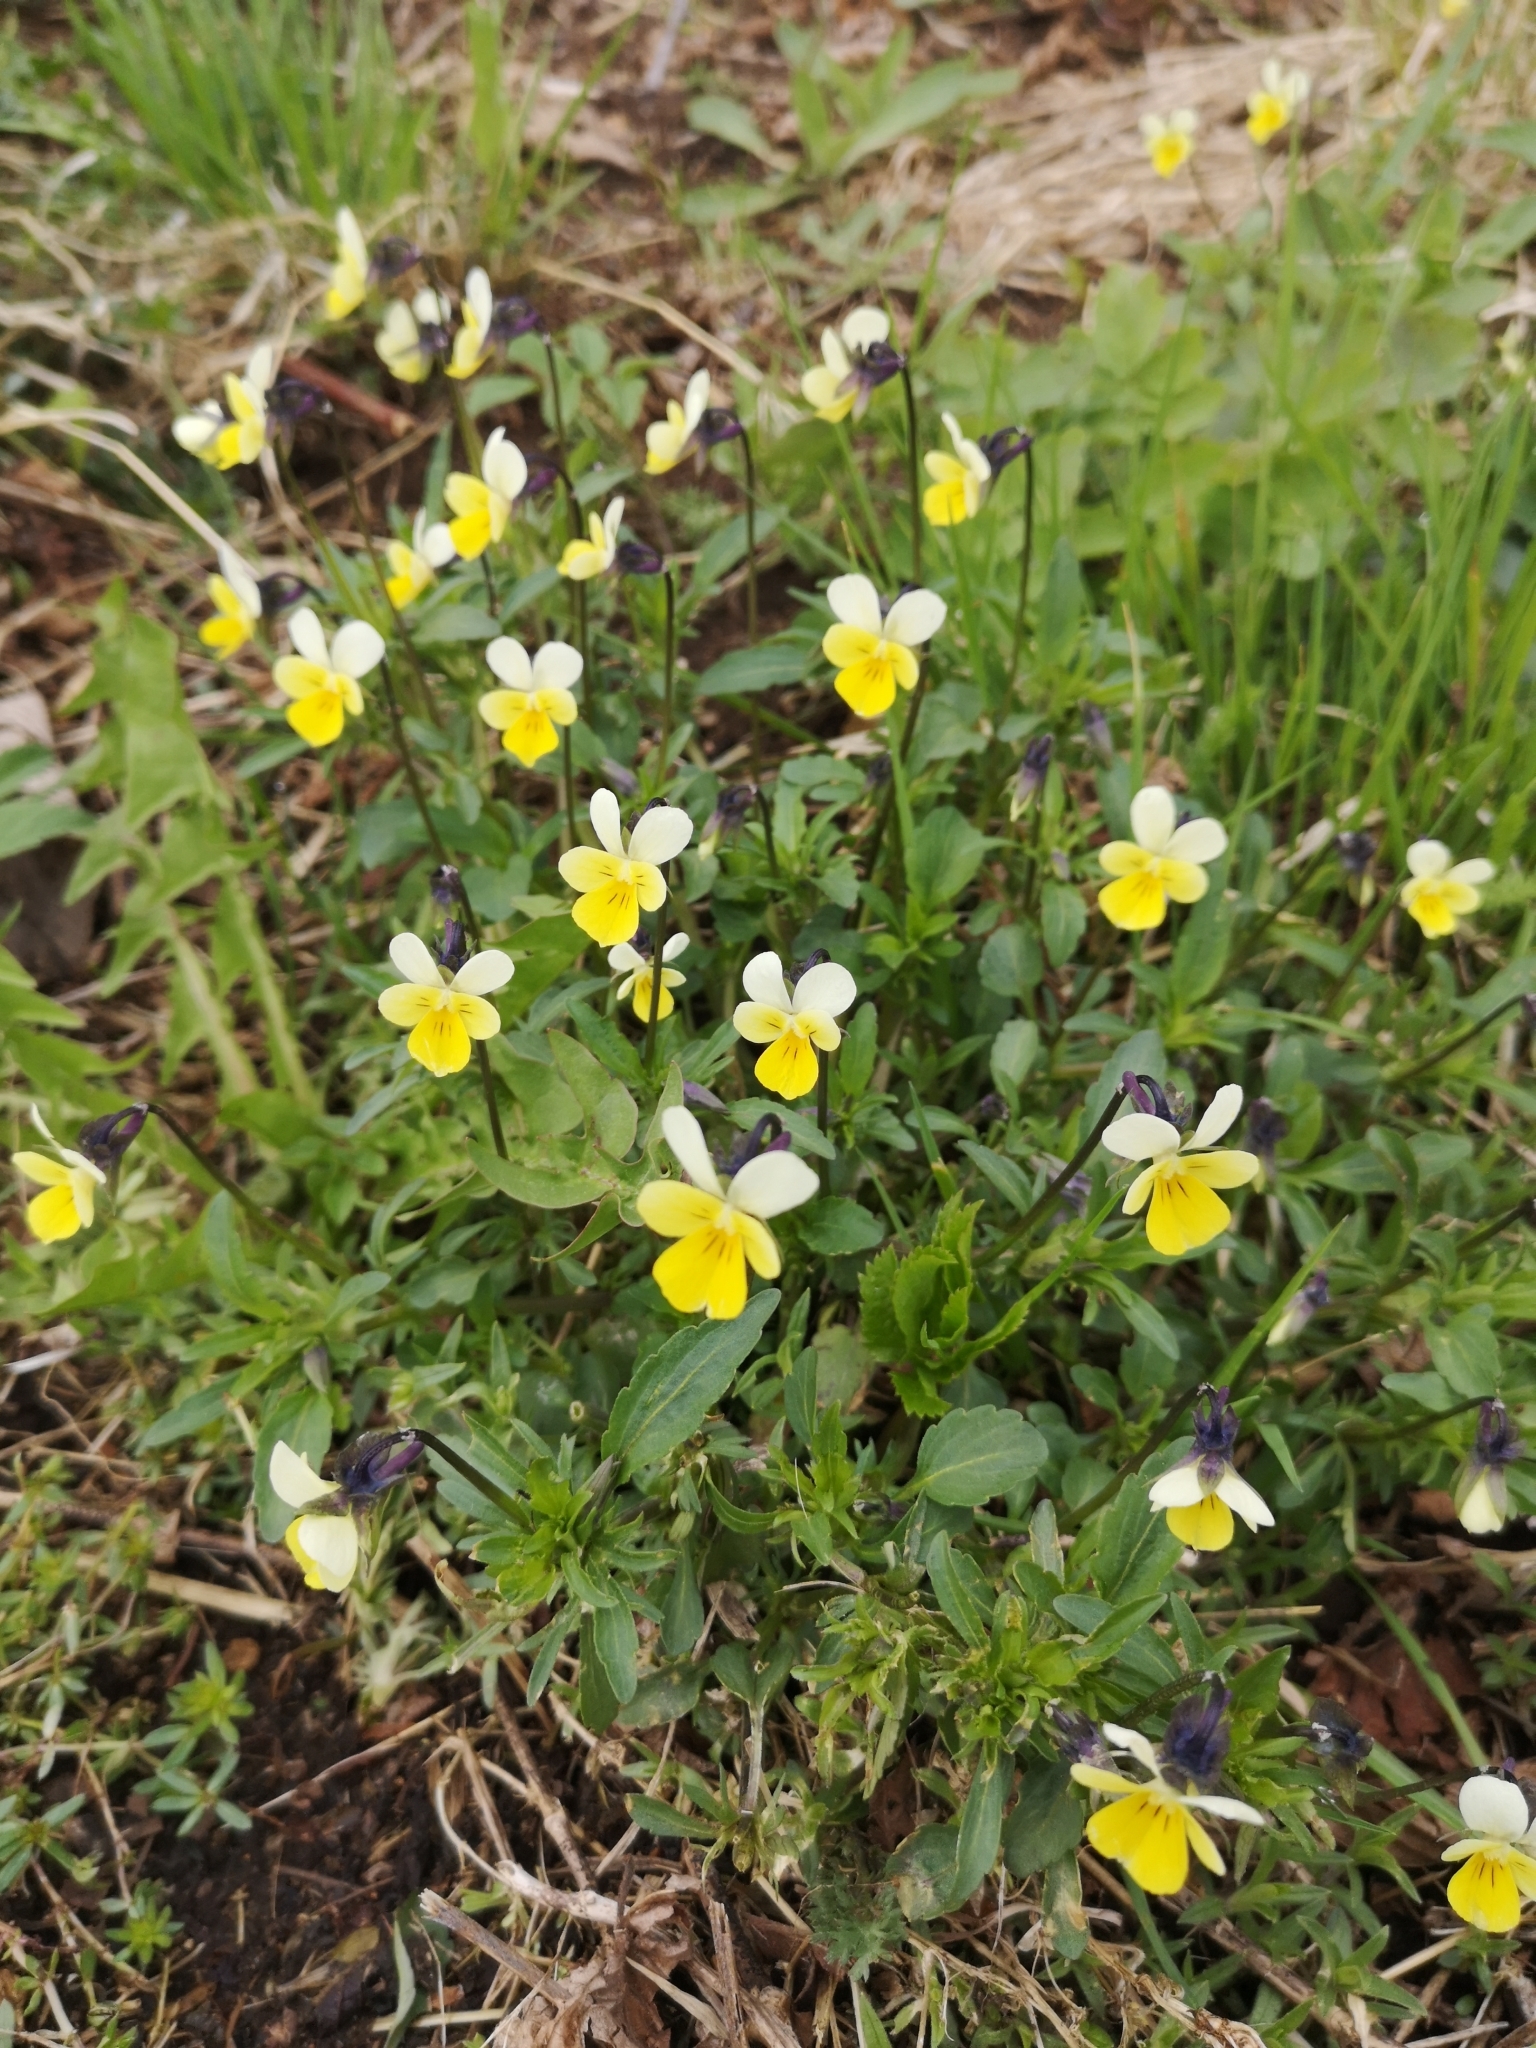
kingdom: Plantae
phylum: Tracheophyta
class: Magnoliopsida
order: Malpighiales
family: Violaceae
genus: Viola
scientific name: Viola arvensis
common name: Field pansy
